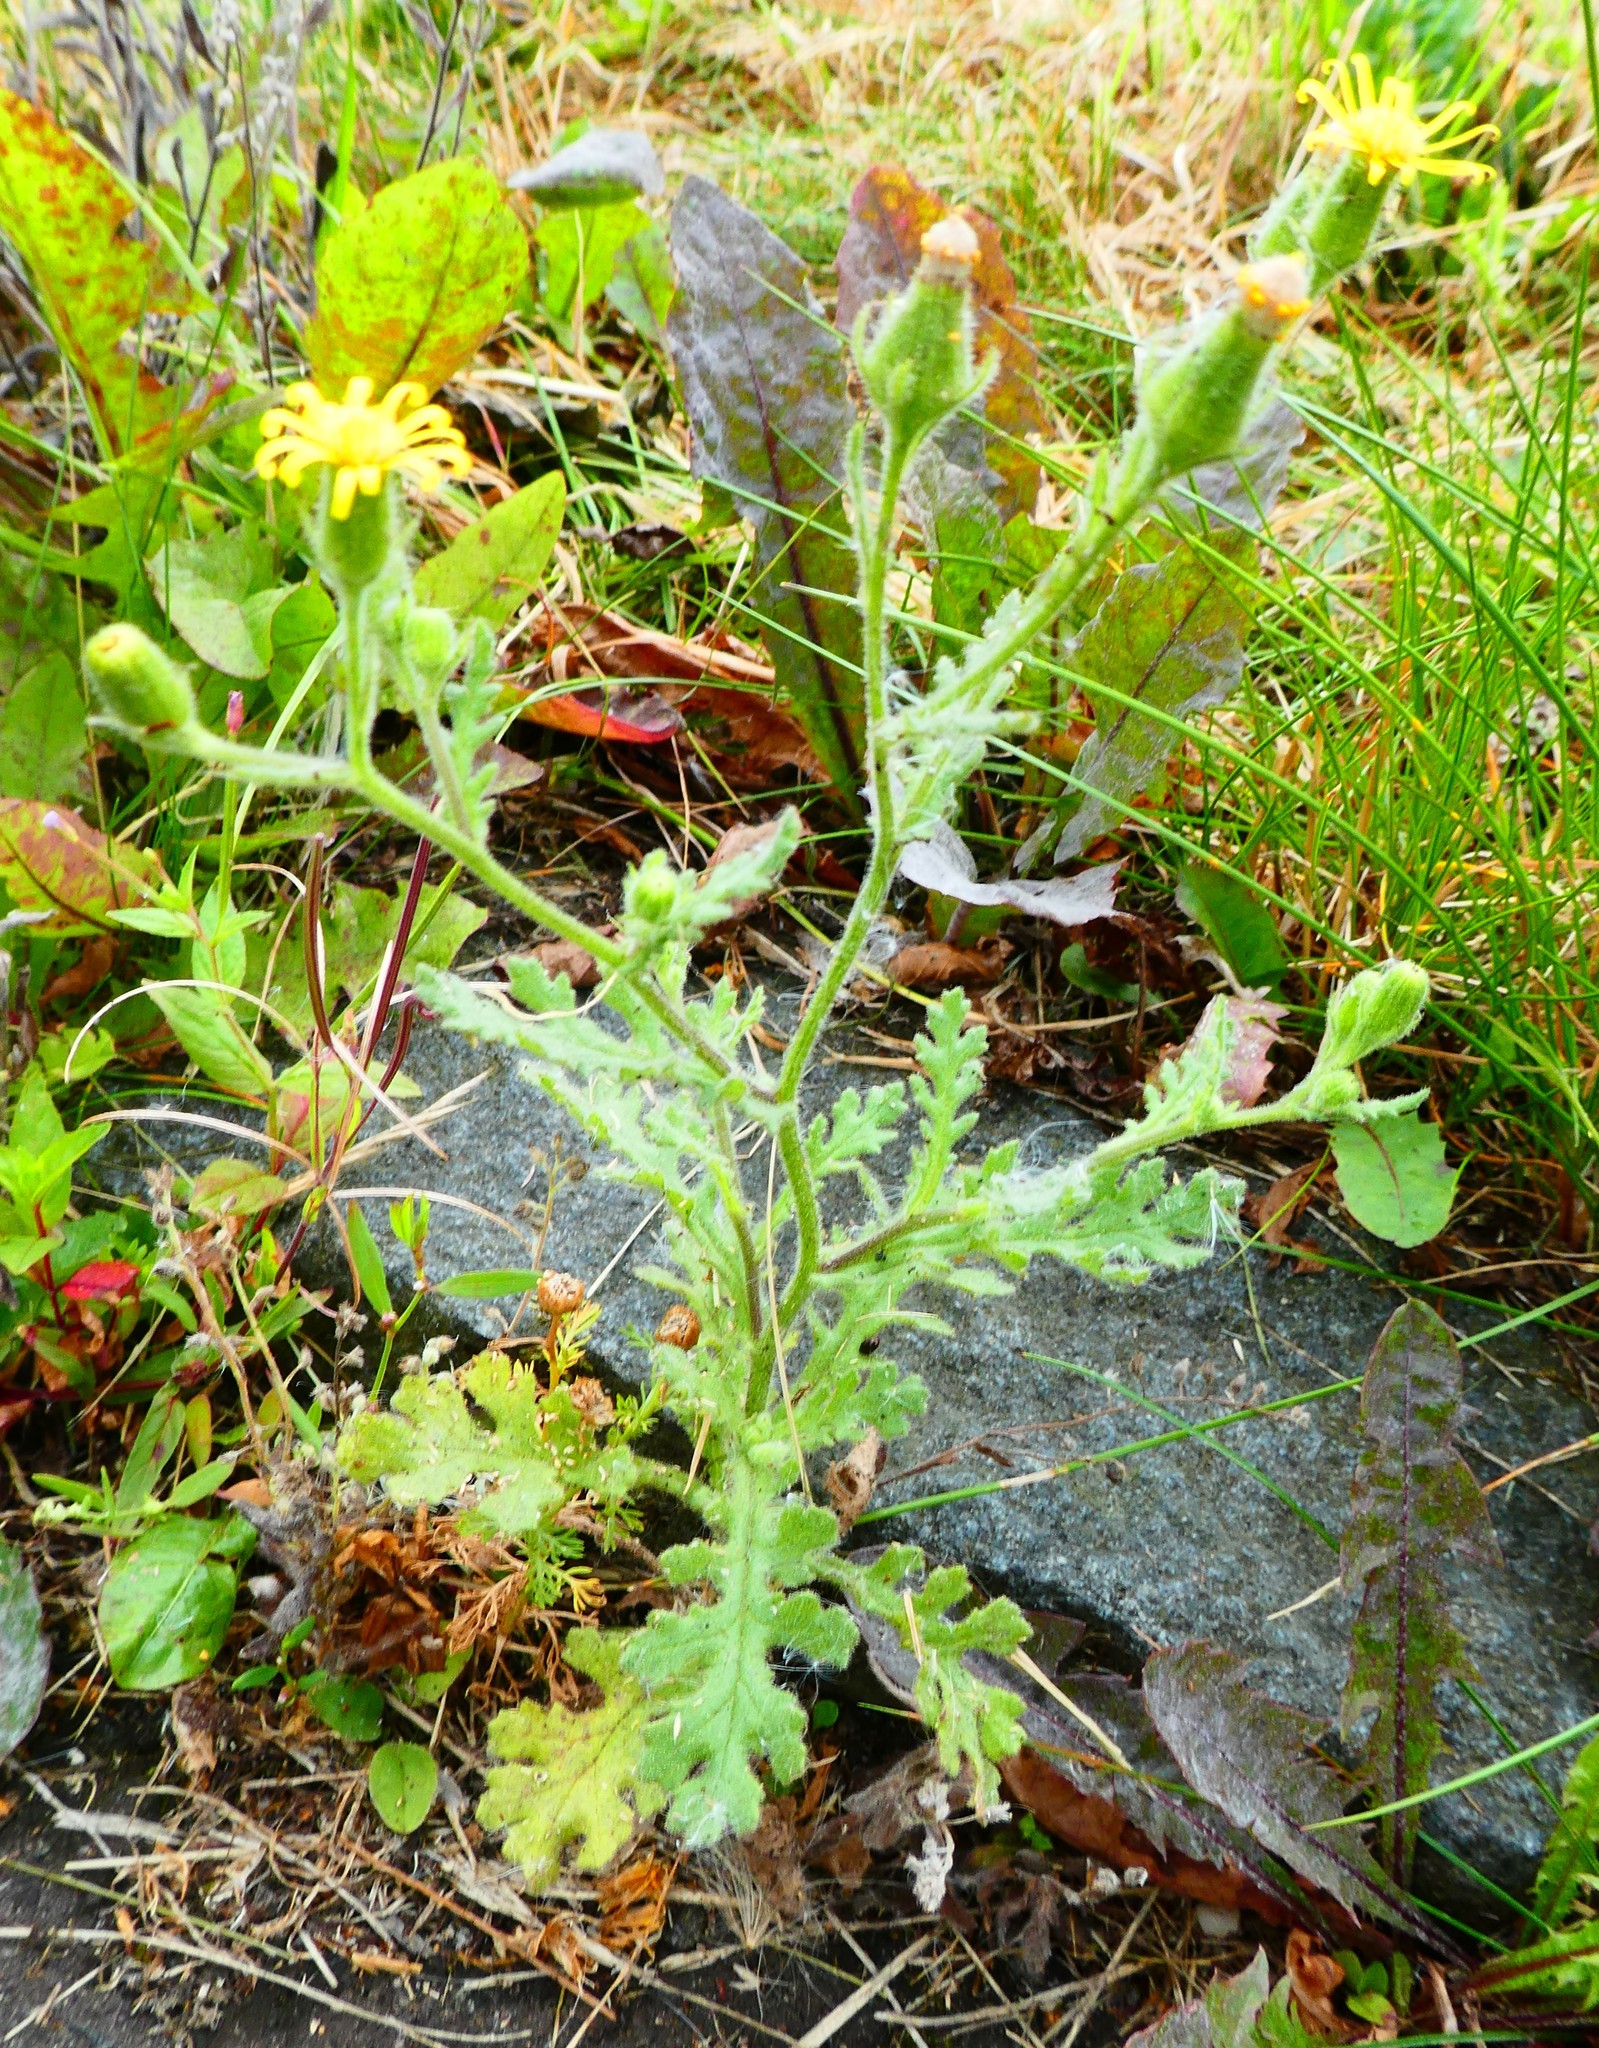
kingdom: Plantae
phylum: Tracheophyta
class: Magnoliopsida
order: Asterales
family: Asteraceae
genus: Senecio
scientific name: Senecio viscosus
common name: Sticky groundsel
